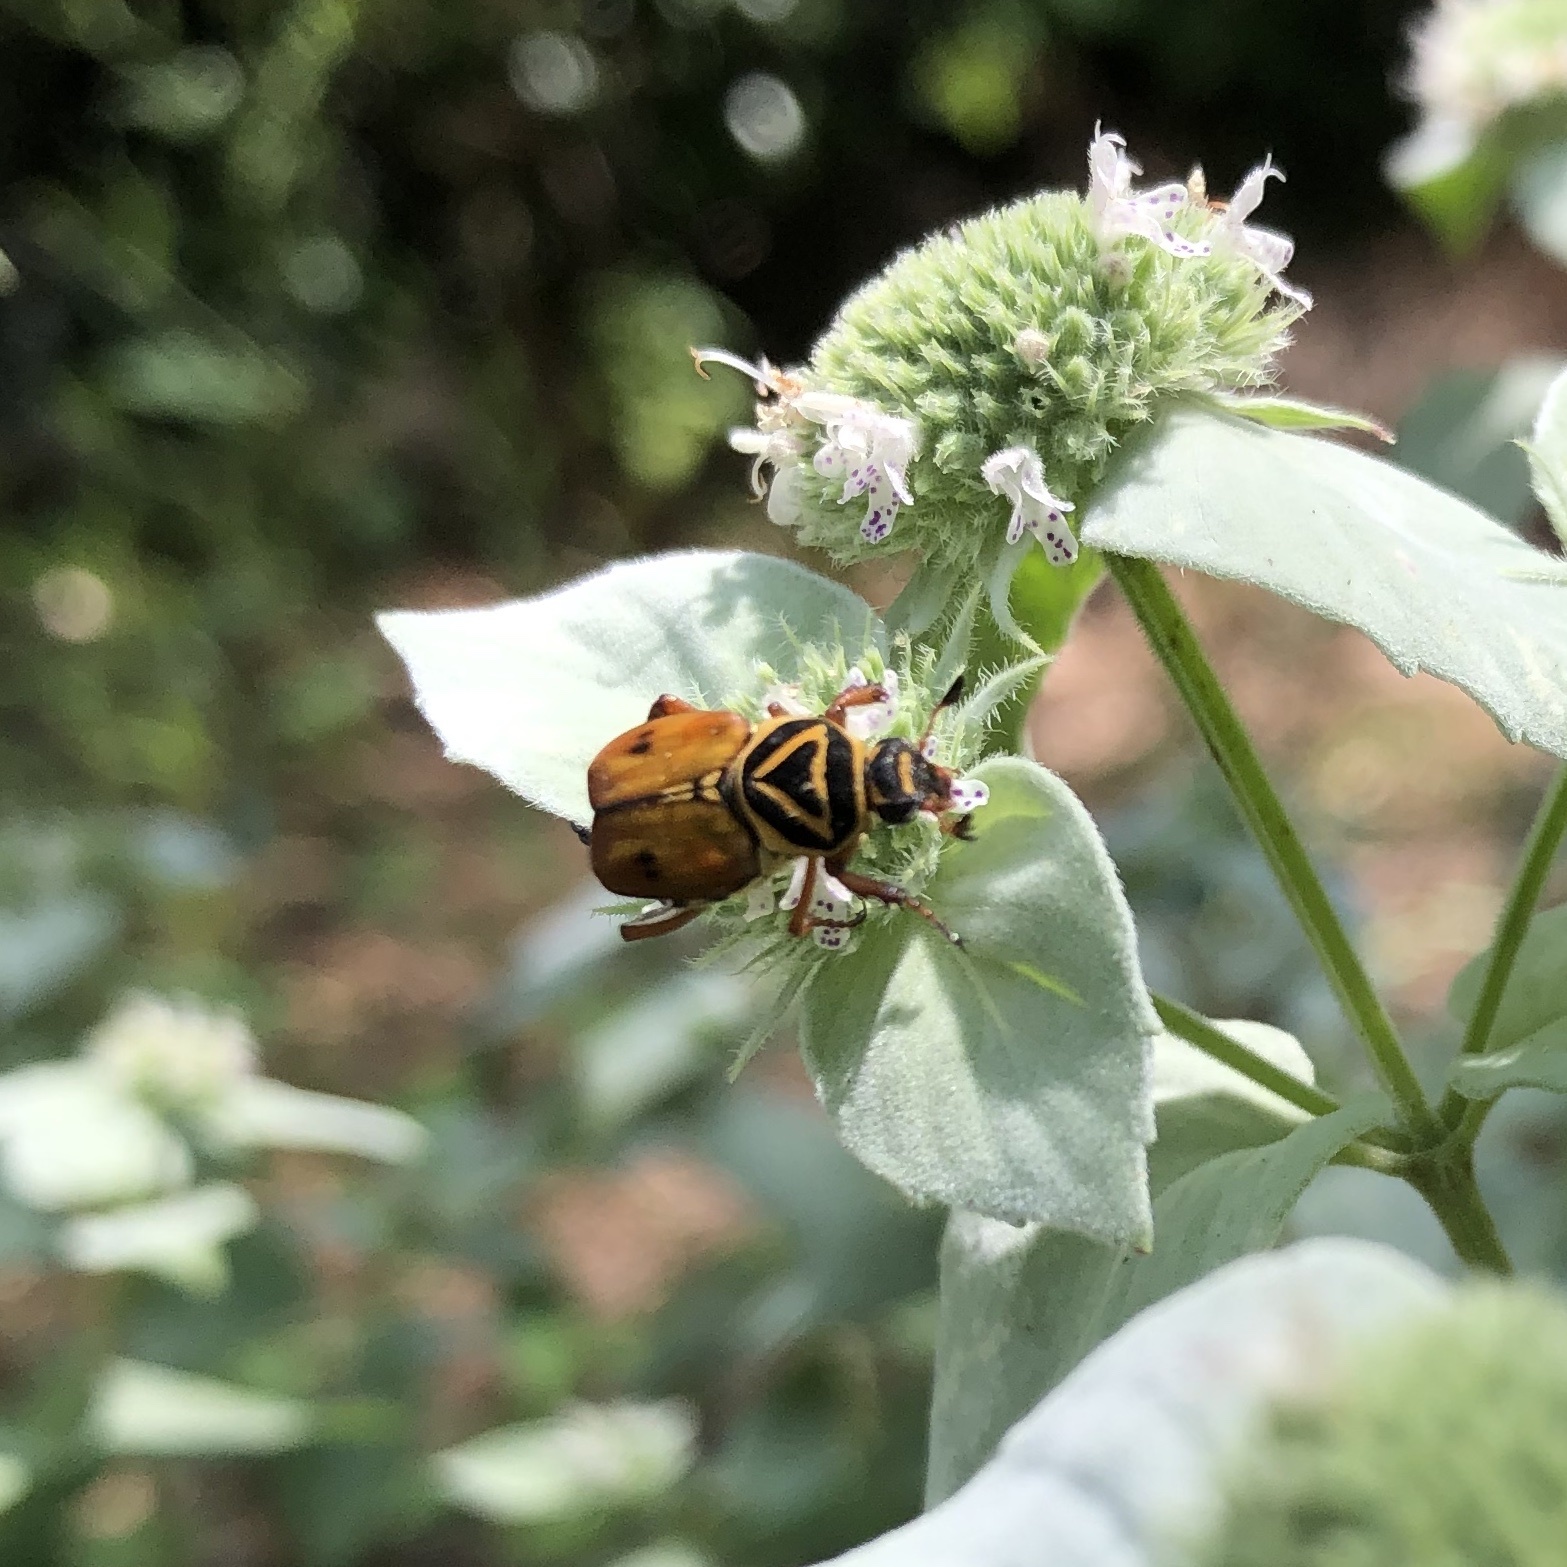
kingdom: Animalia
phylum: Arthropoda
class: Insecta
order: Coleoptera
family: Scarabaeidae
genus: Trigonopeltastes
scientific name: Trigonopeltastes delta
